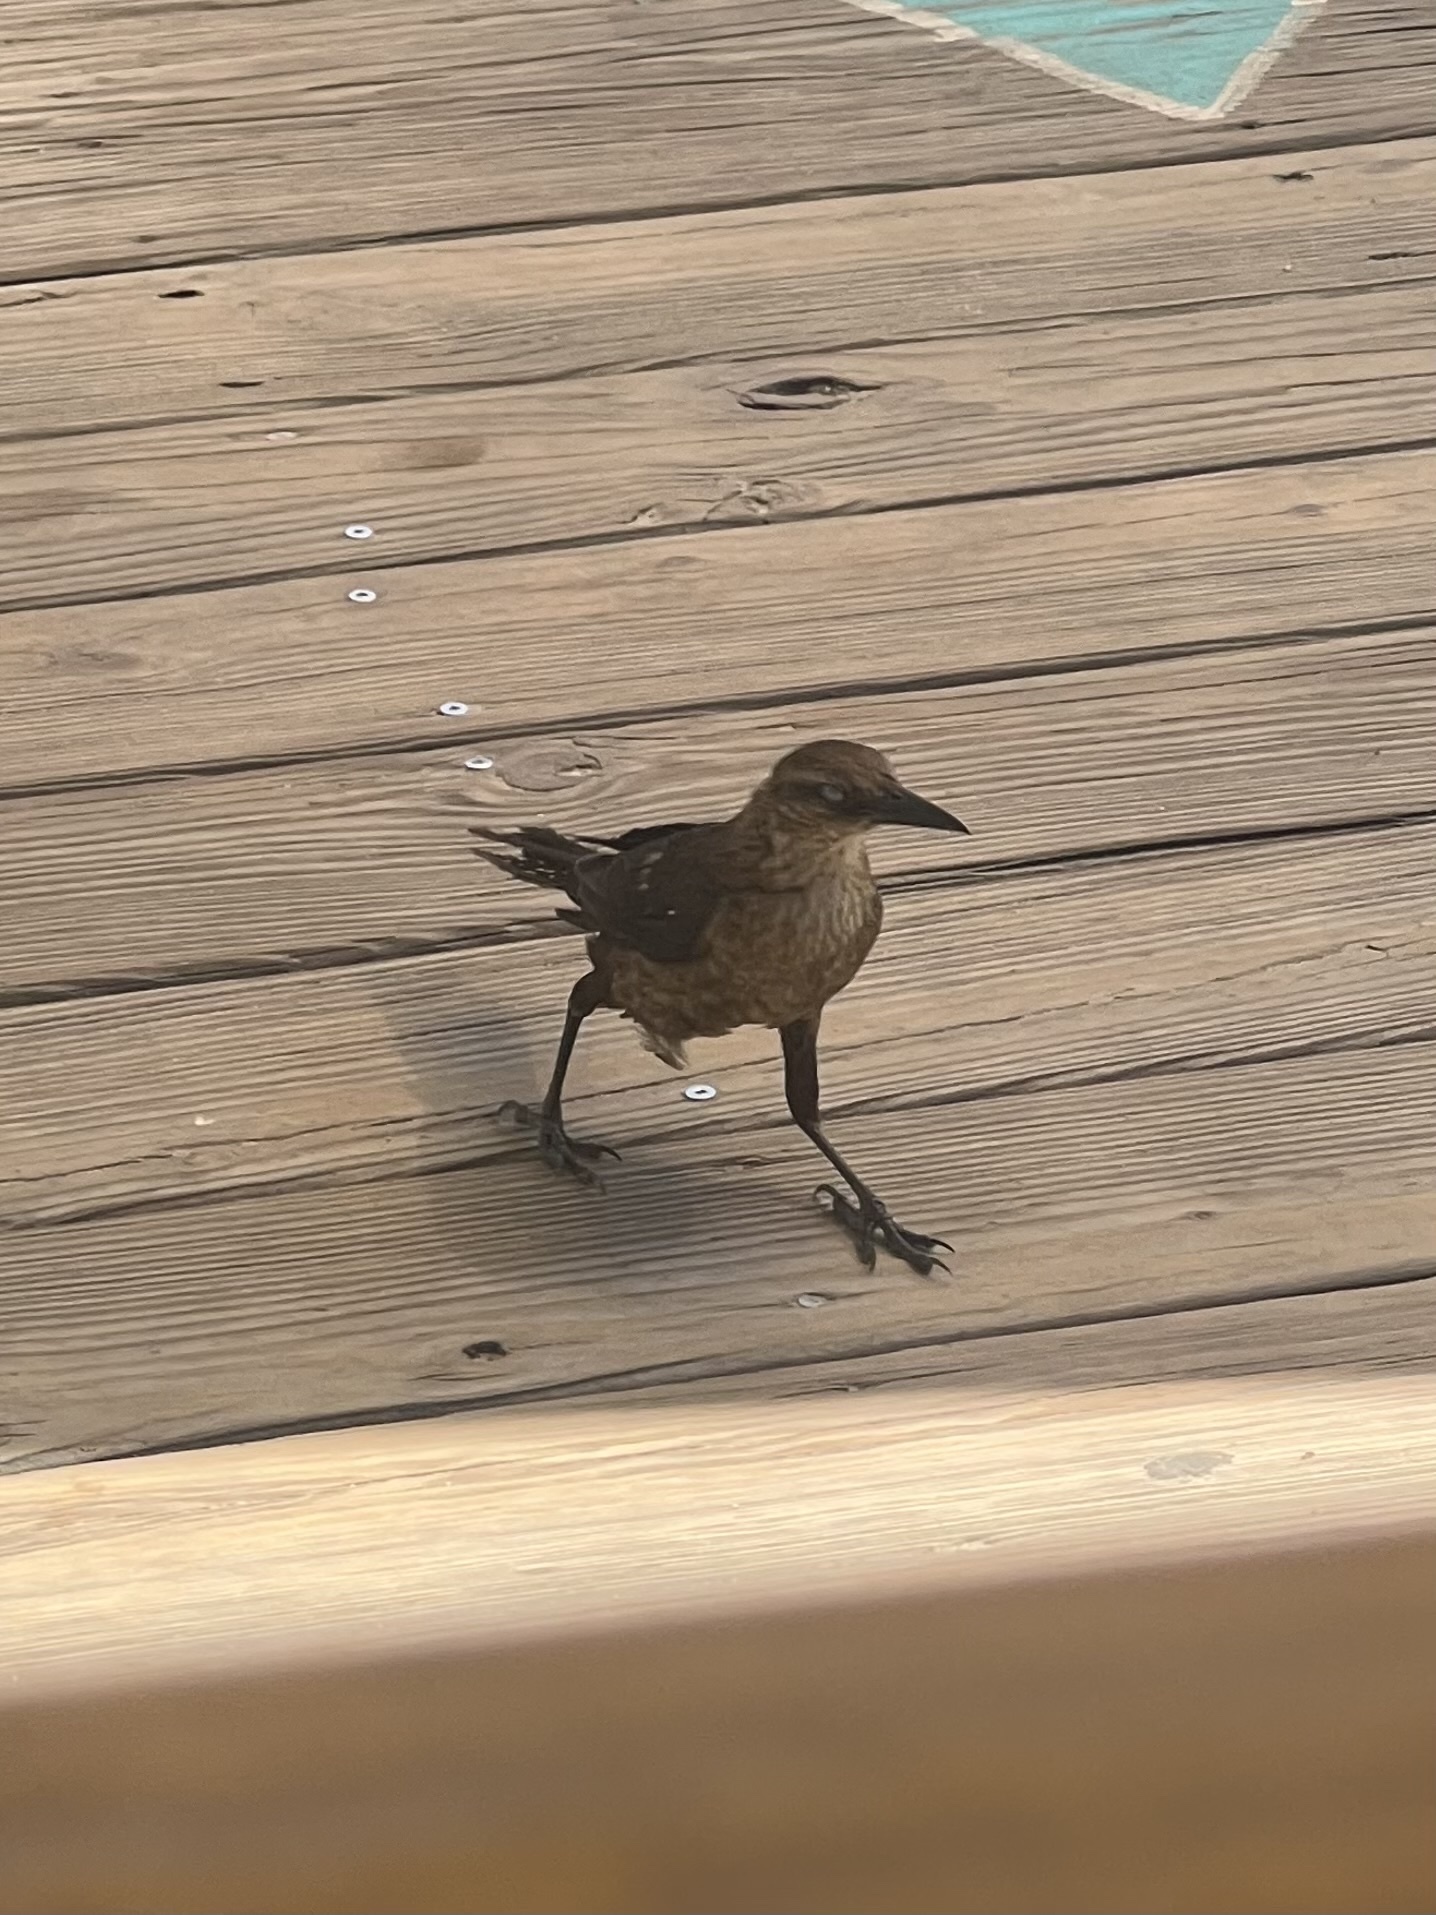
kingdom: Animalia
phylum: Chordata
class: Aves
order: Passeriformes
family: Icteridae
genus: Quiscalus
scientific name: Quiscalus major
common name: Boat-tailed grackle
